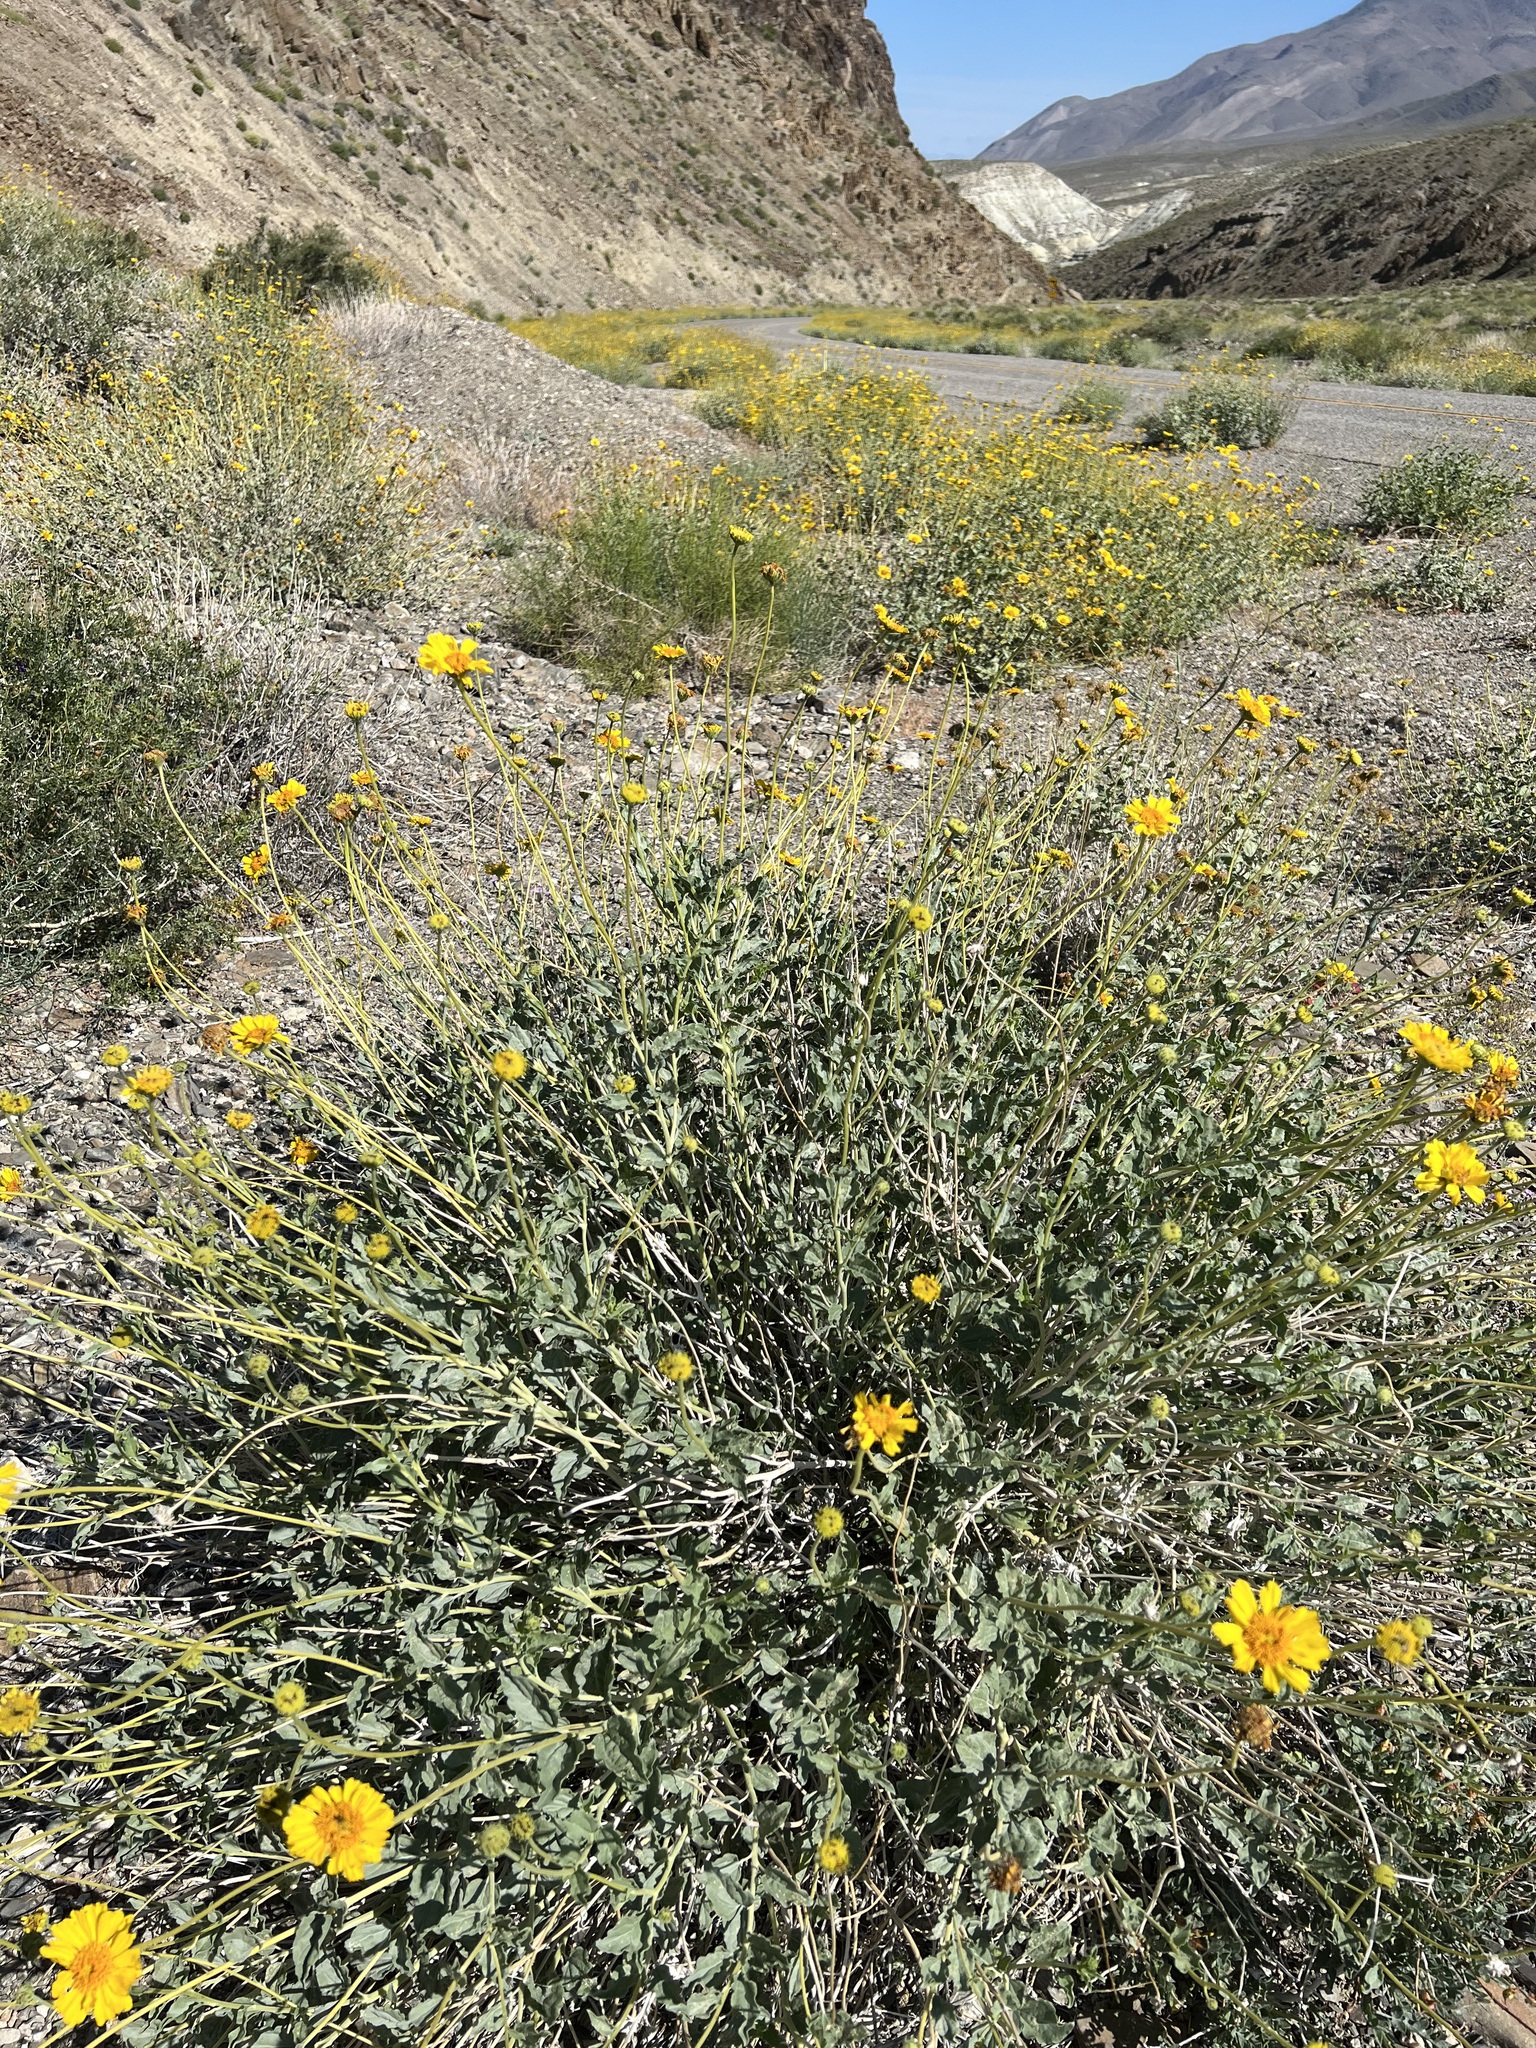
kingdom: Plantae
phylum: Tracheophyta
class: Magnoliopsida
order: Asterales
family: Asteraceae
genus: Encelia
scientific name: Encelia actoni
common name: Acton encelia
